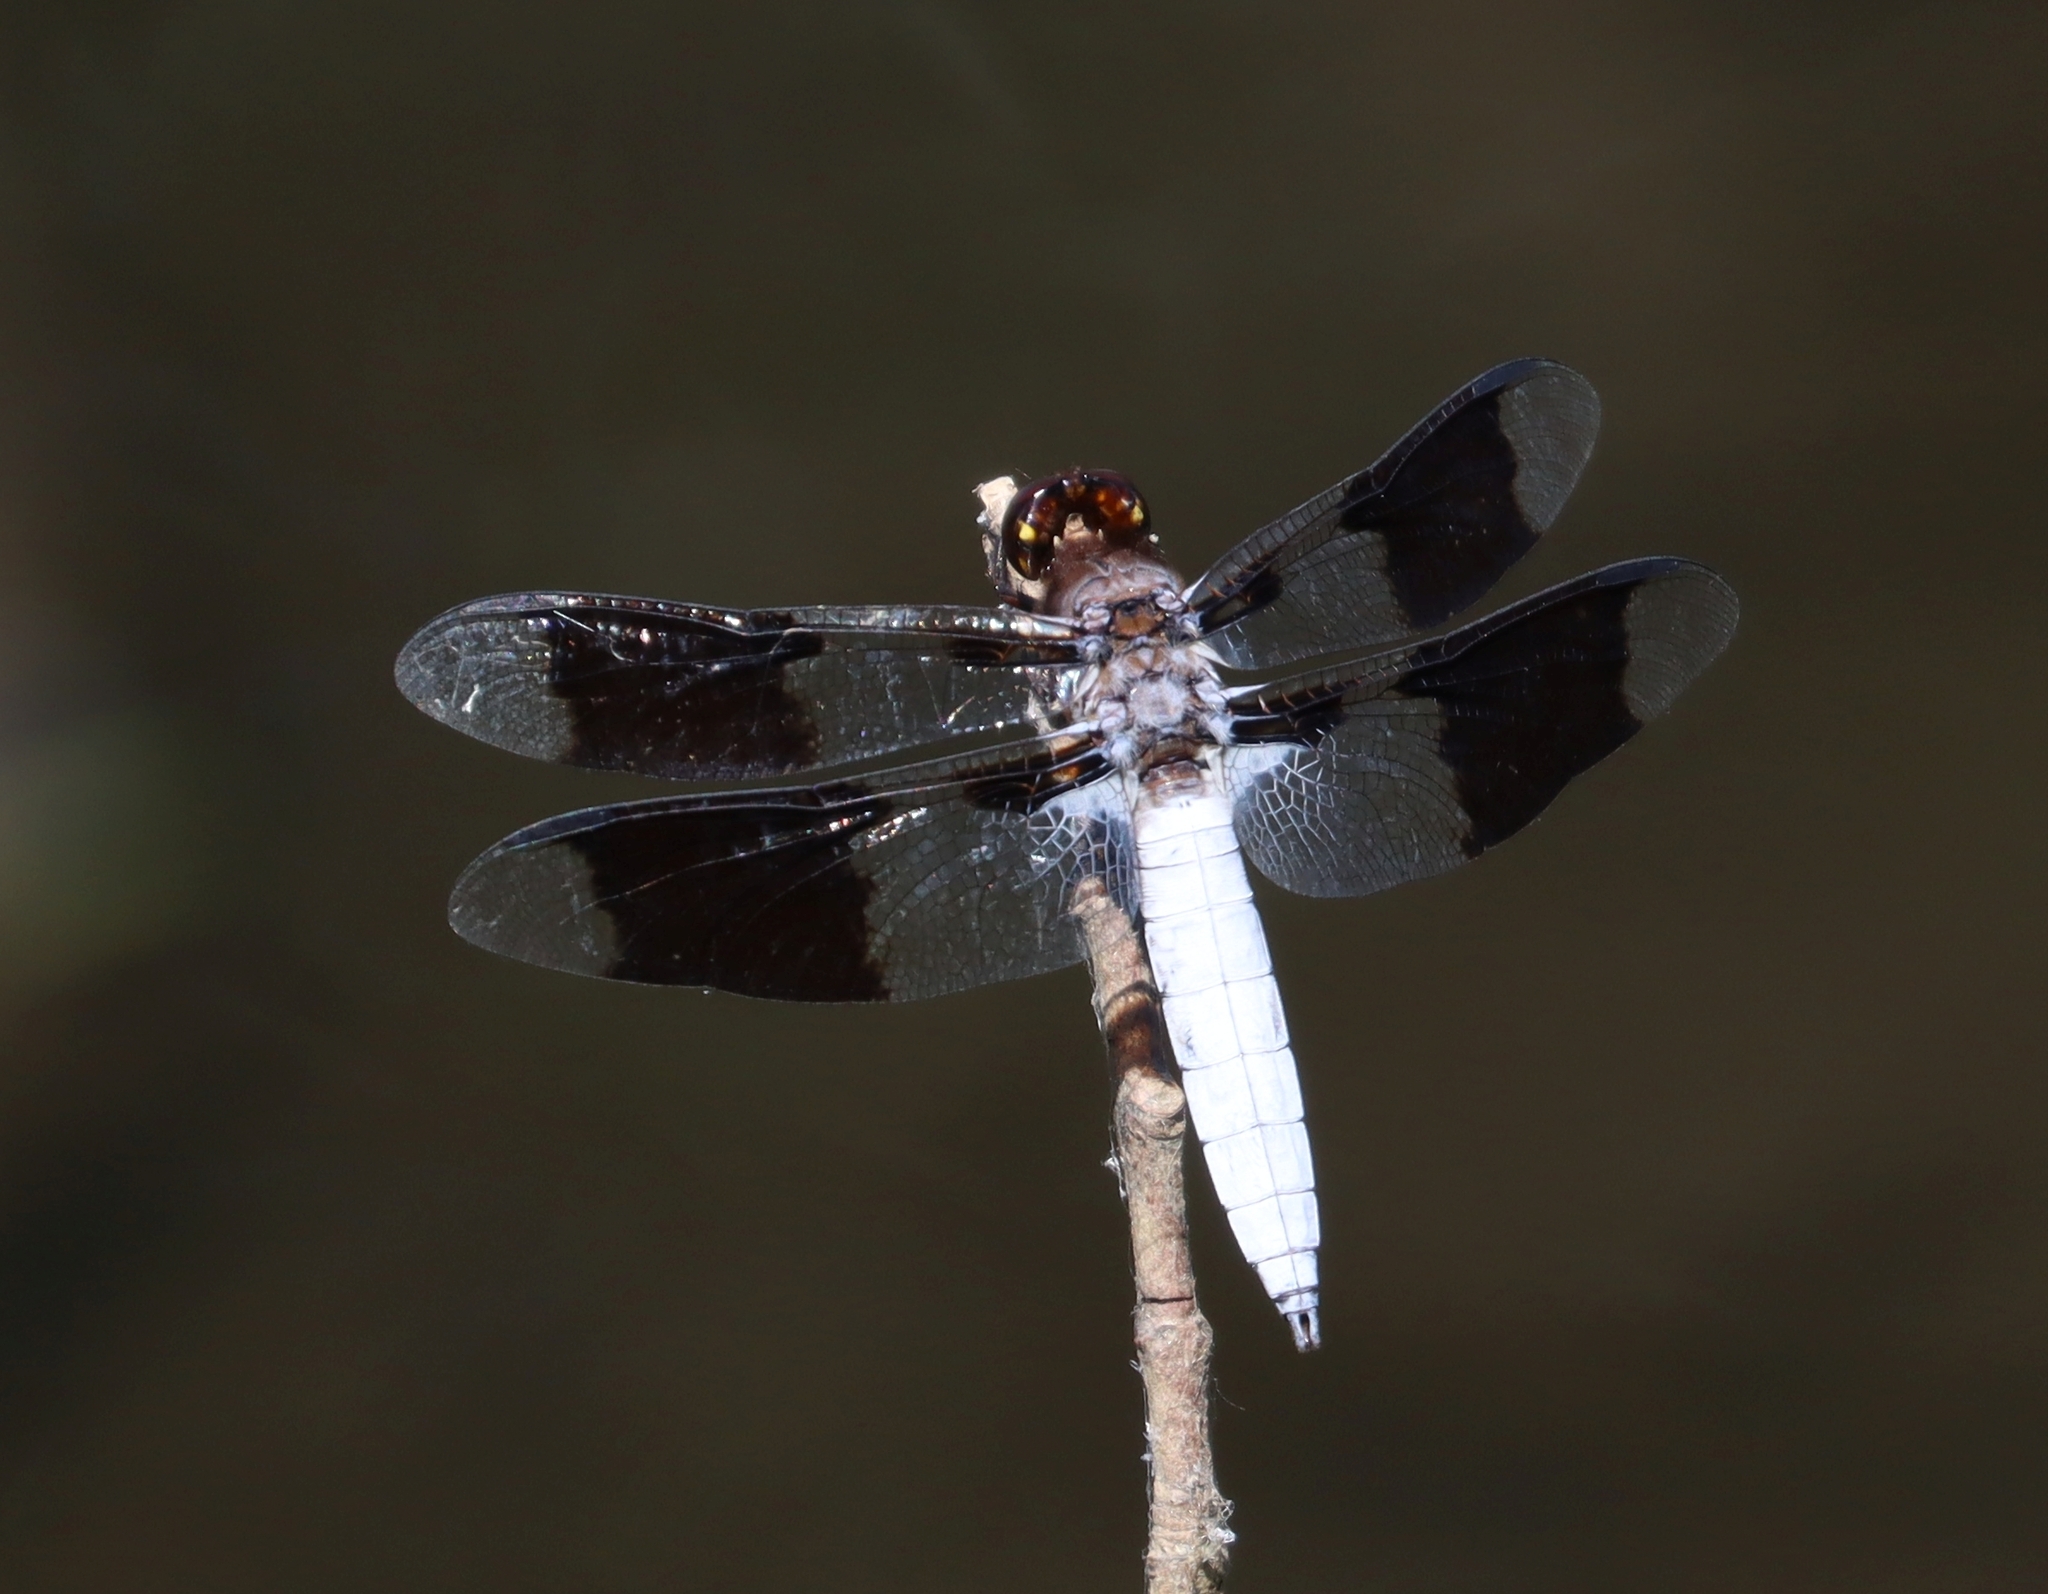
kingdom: Animalia
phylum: Arthropoda
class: Insecta
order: Odonata
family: Libellulidae
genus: Plathemis
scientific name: Plathemis lydia
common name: Common whitetail
